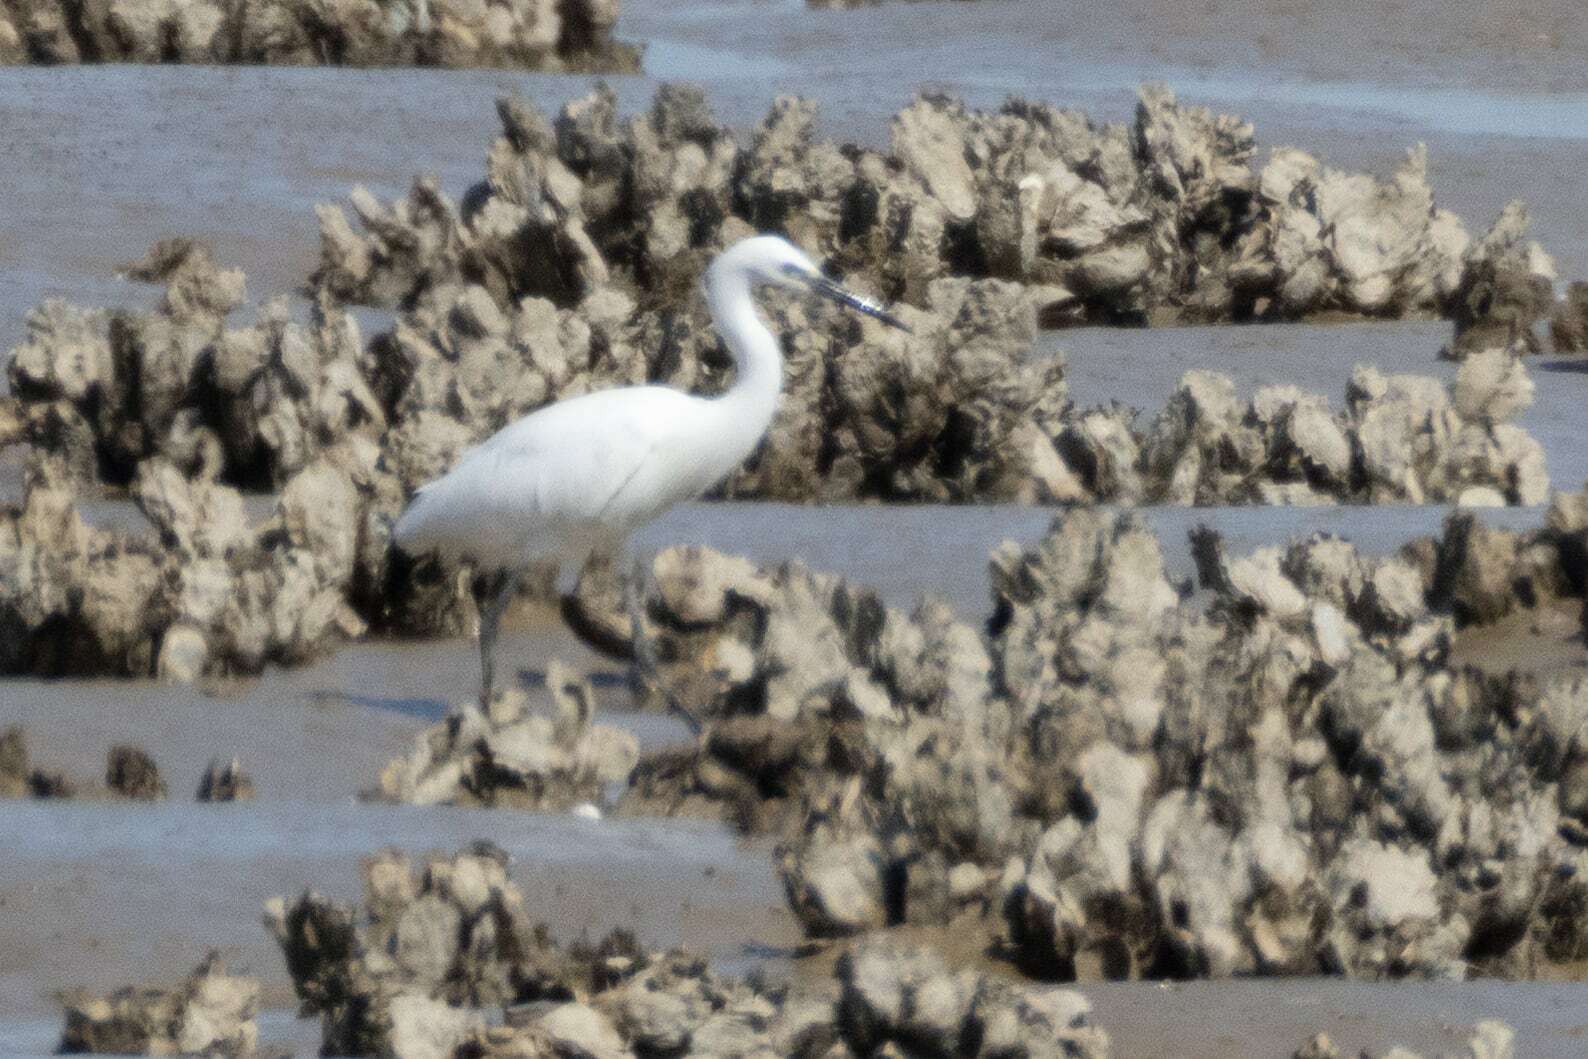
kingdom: Animalia
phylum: Chordata
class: Aves
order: Pelecaniformes
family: Ardeidae
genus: Egretta
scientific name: Egretta garzetta
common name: Little egret
